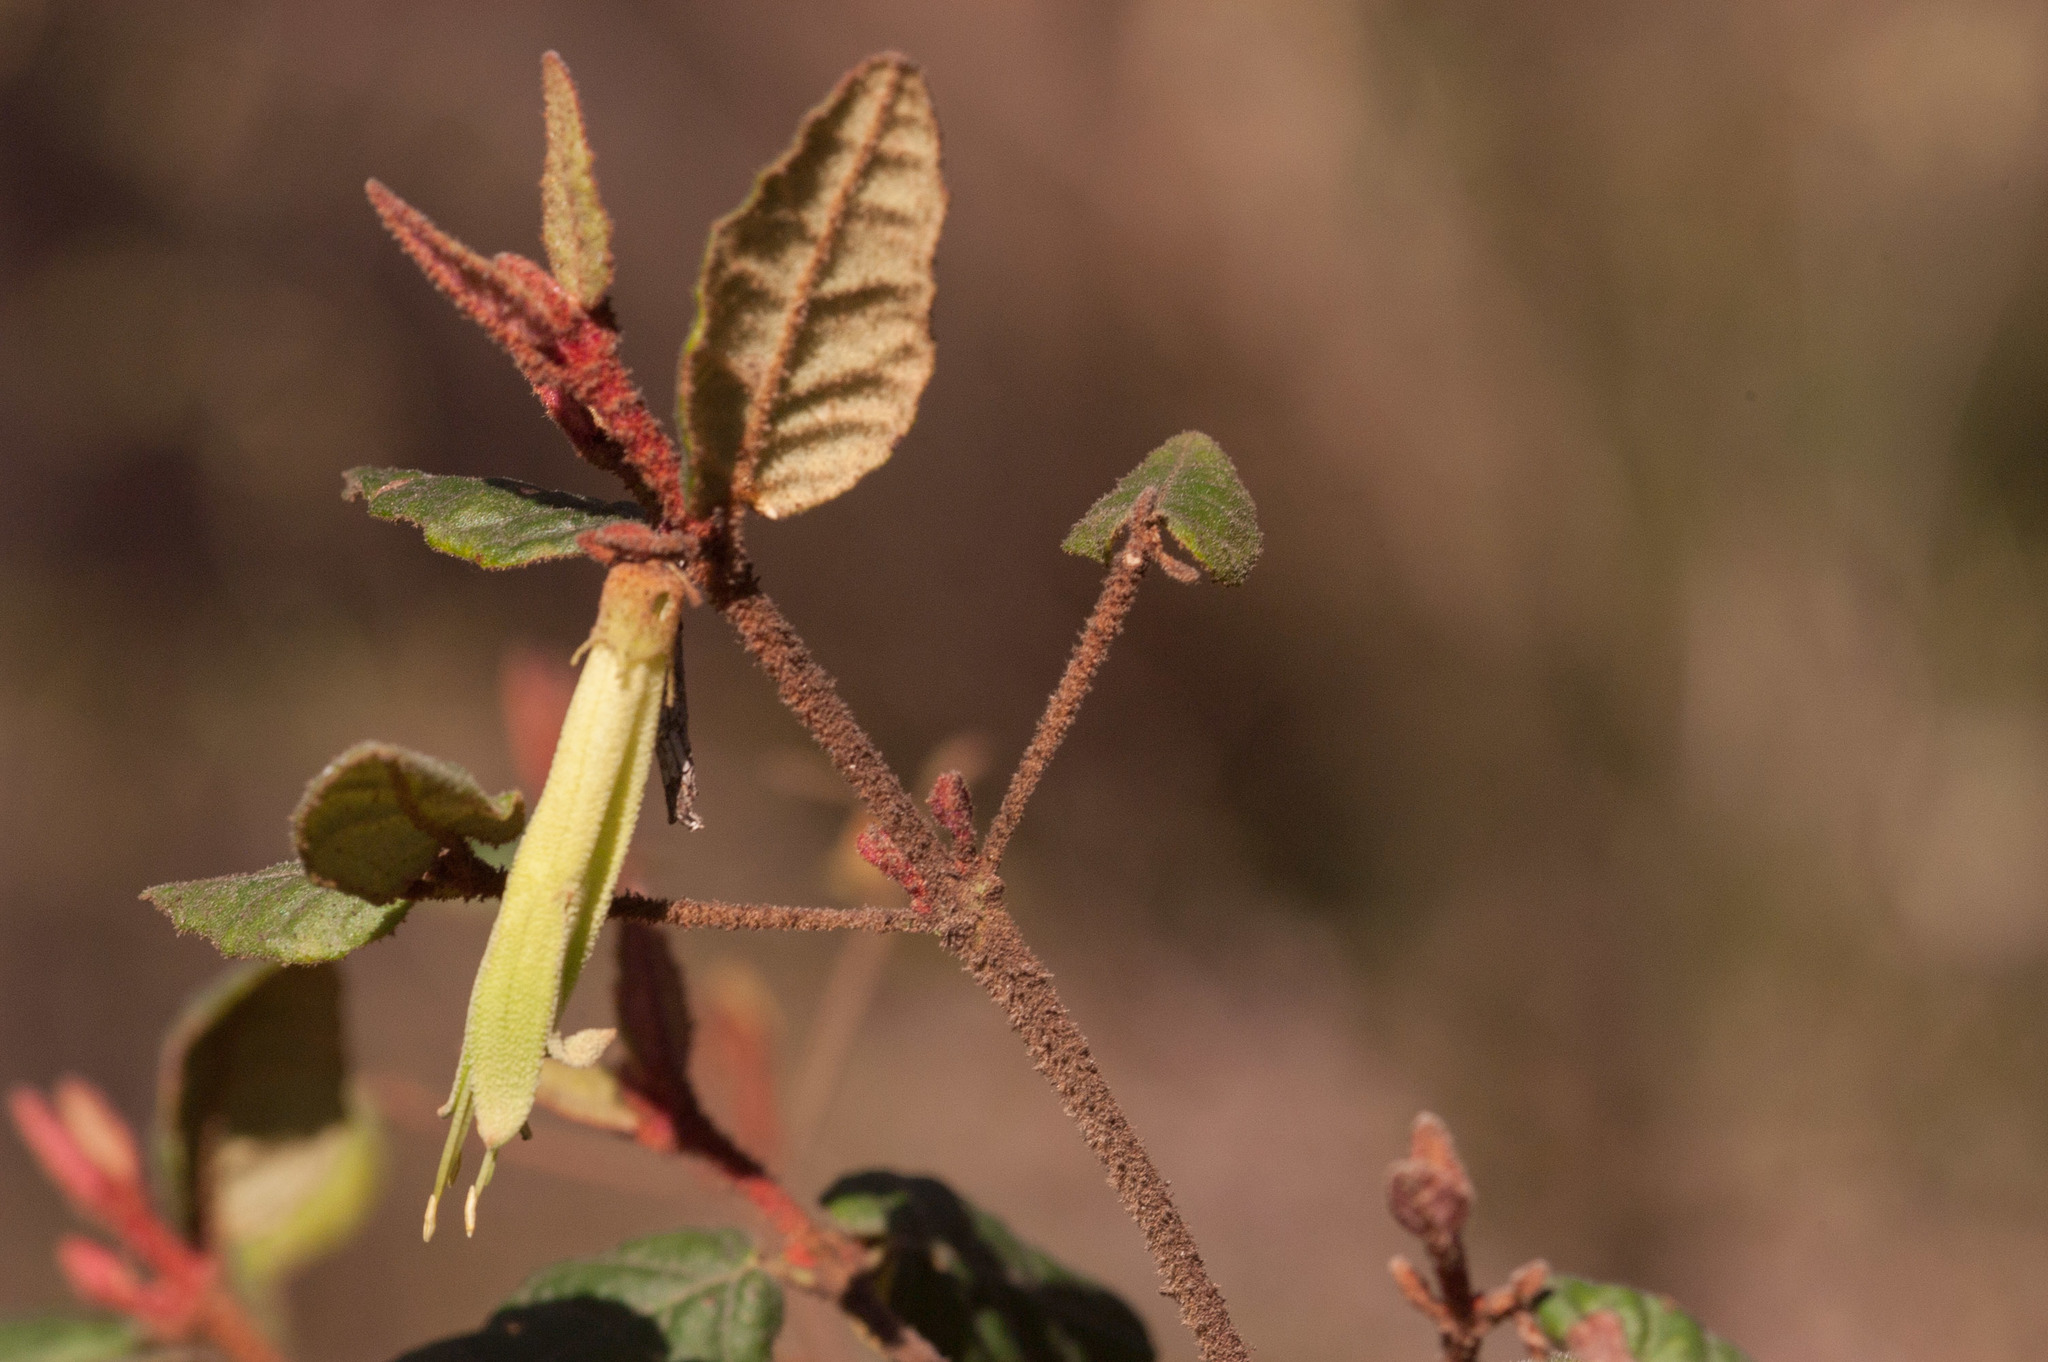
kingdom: Plantae
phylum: Tracheophyta
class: Magnoliopsida
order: Sapindales
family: Rutaceae
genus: Correa
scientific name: Correa reflexa
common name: Common correa
